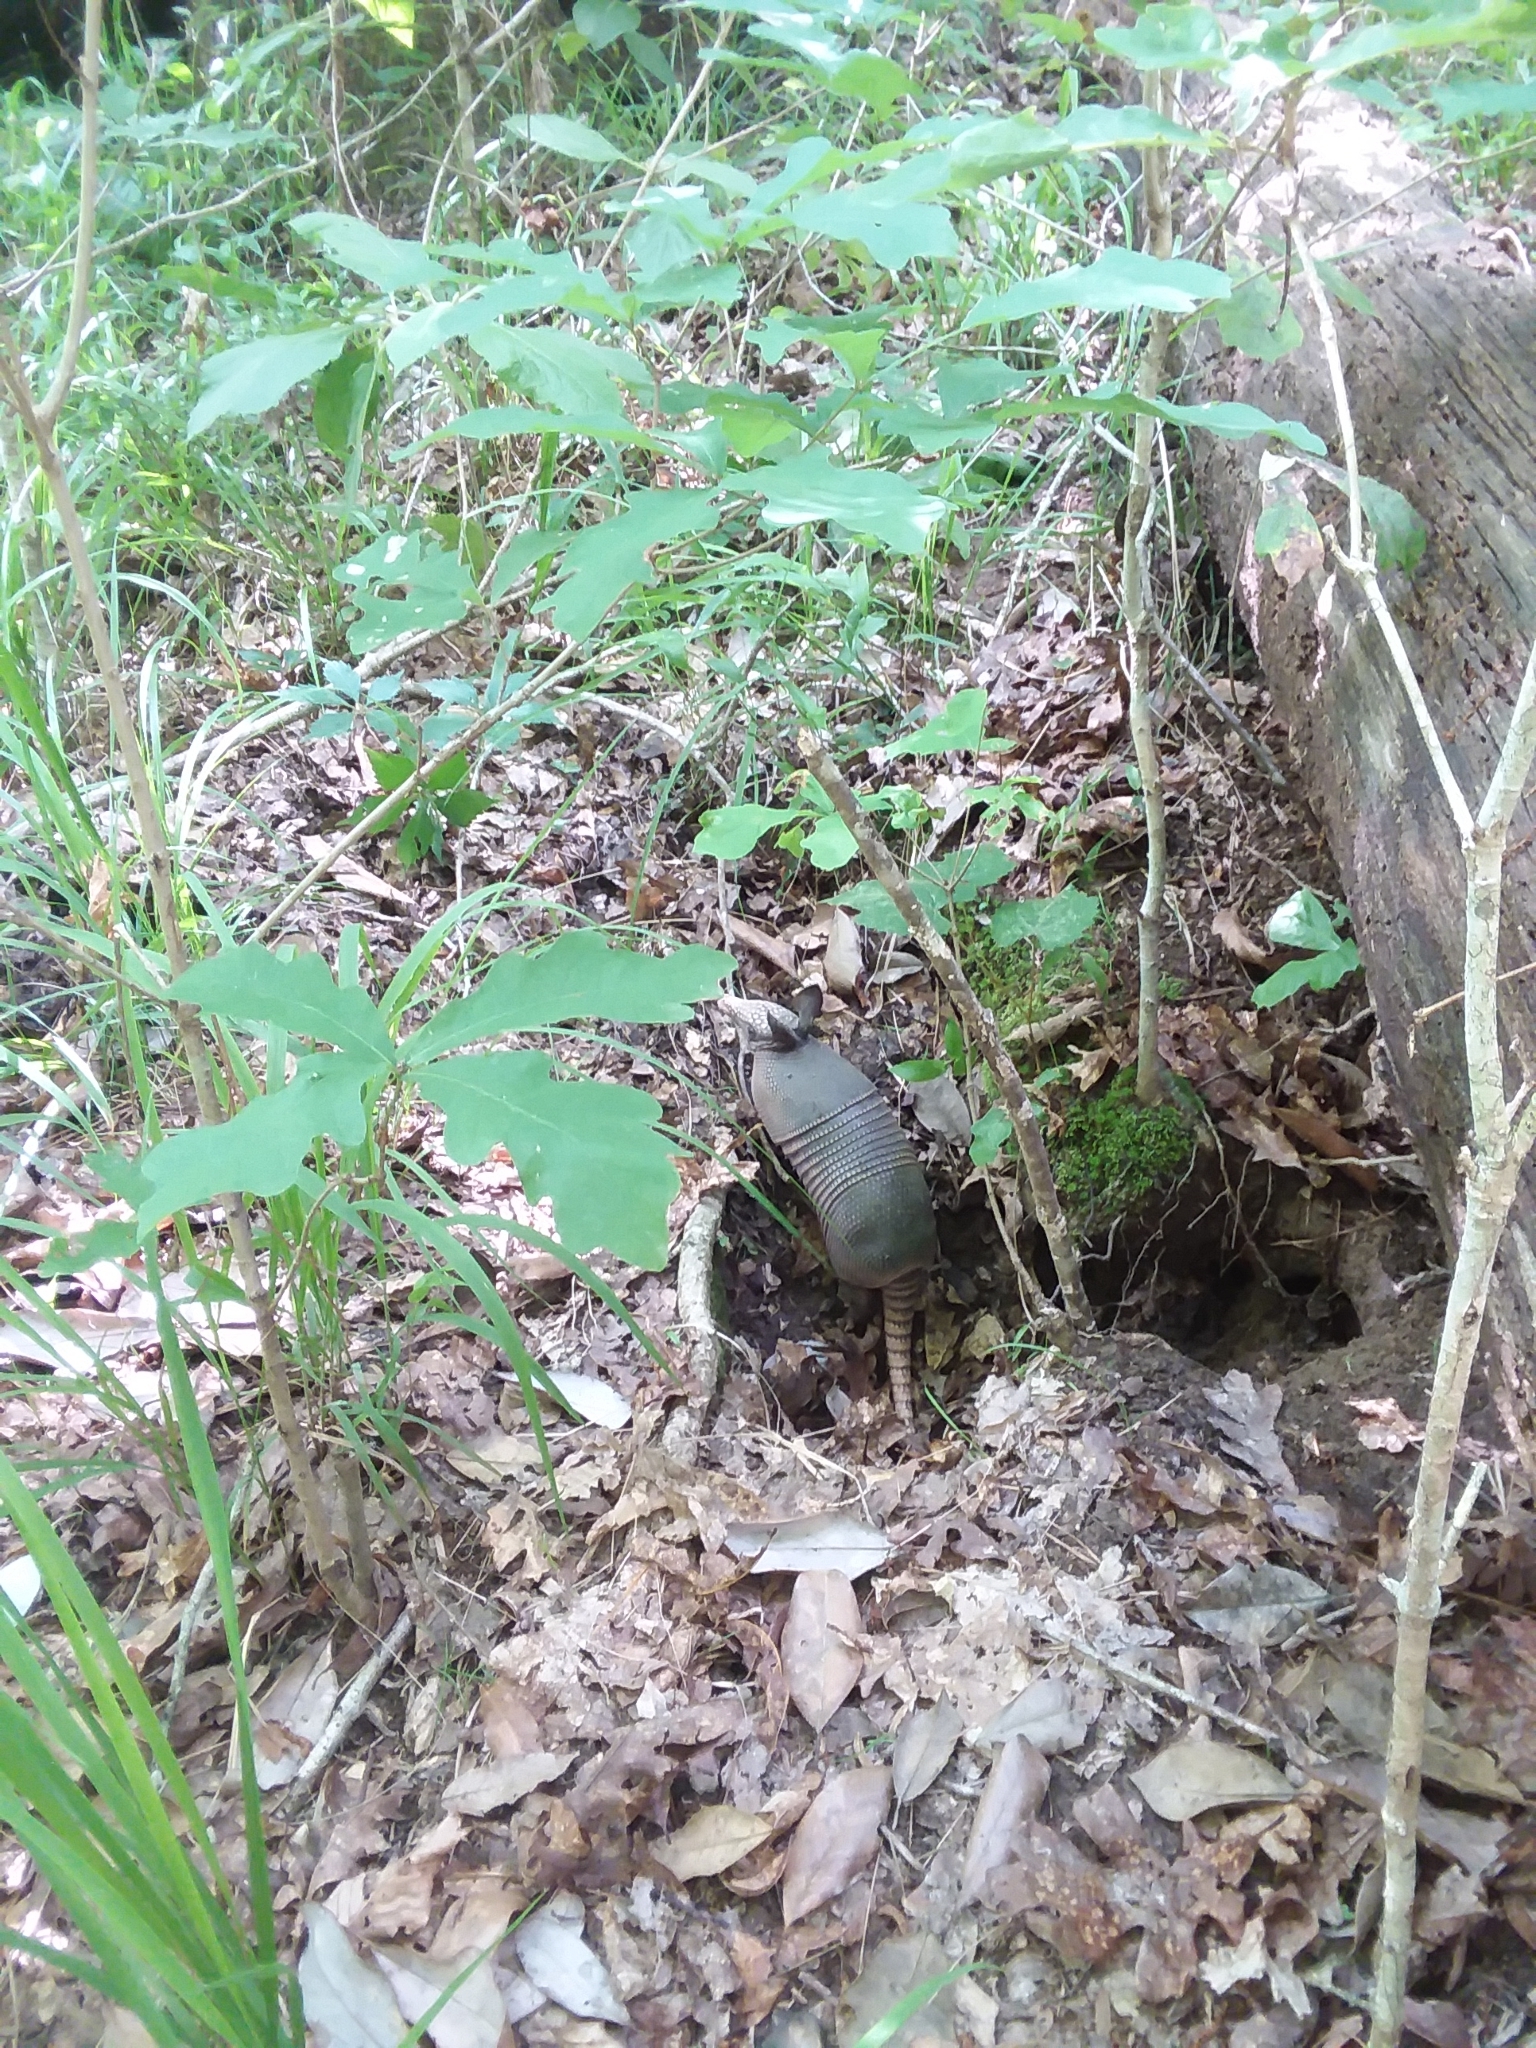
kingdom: Animalia
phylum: Chordata
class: Mammalia
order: Cingulata
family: Dasypodidae
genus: Dasypus
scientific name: Dasypus novemcinctus
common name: Nine-banded armadillo
